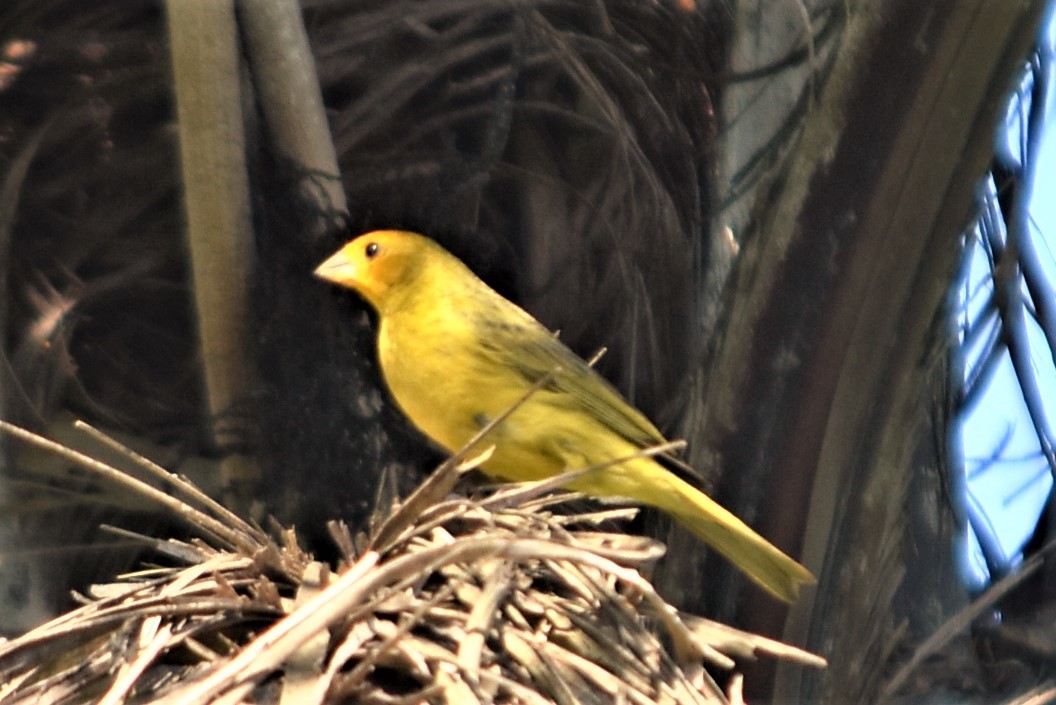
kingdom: Animalia
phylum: Chordata
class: Aves
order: Passeriformes
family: Thraupidae
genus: Sicalis
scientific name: Sicalis flaveola
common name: Saffron finch
